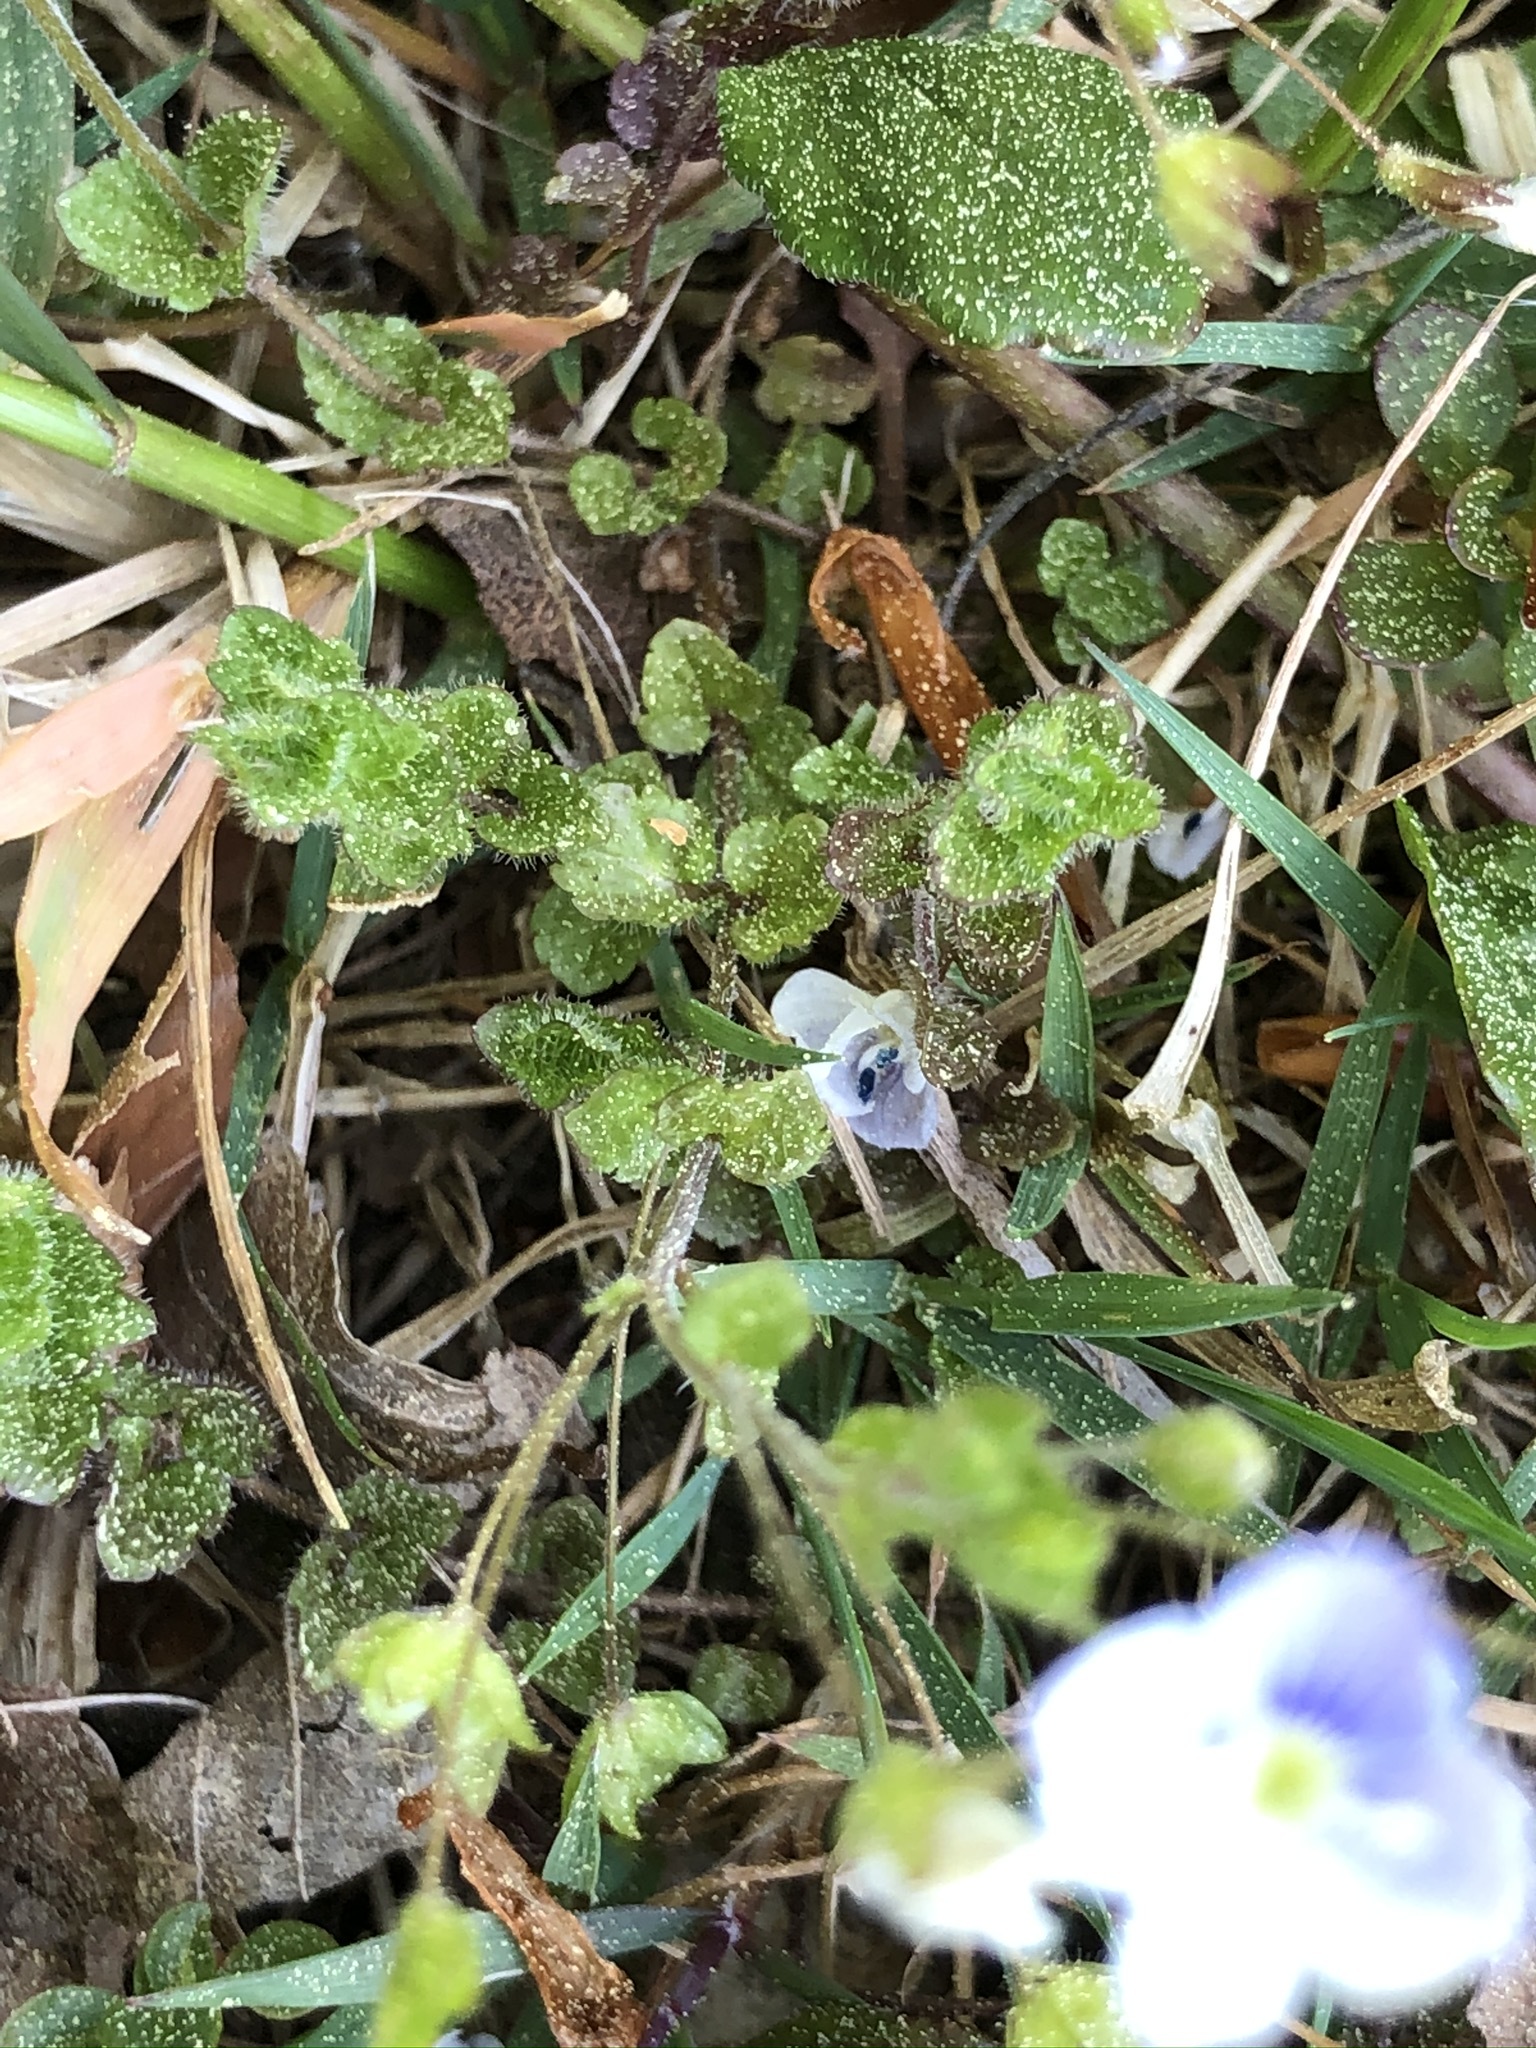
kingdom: Plantae
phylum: Tracheophyta
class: Magnoliopsida
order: Lamiales
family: Plantaginaceae
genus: Veronica
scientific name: Veronica filiformis
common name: Slender speedwell
